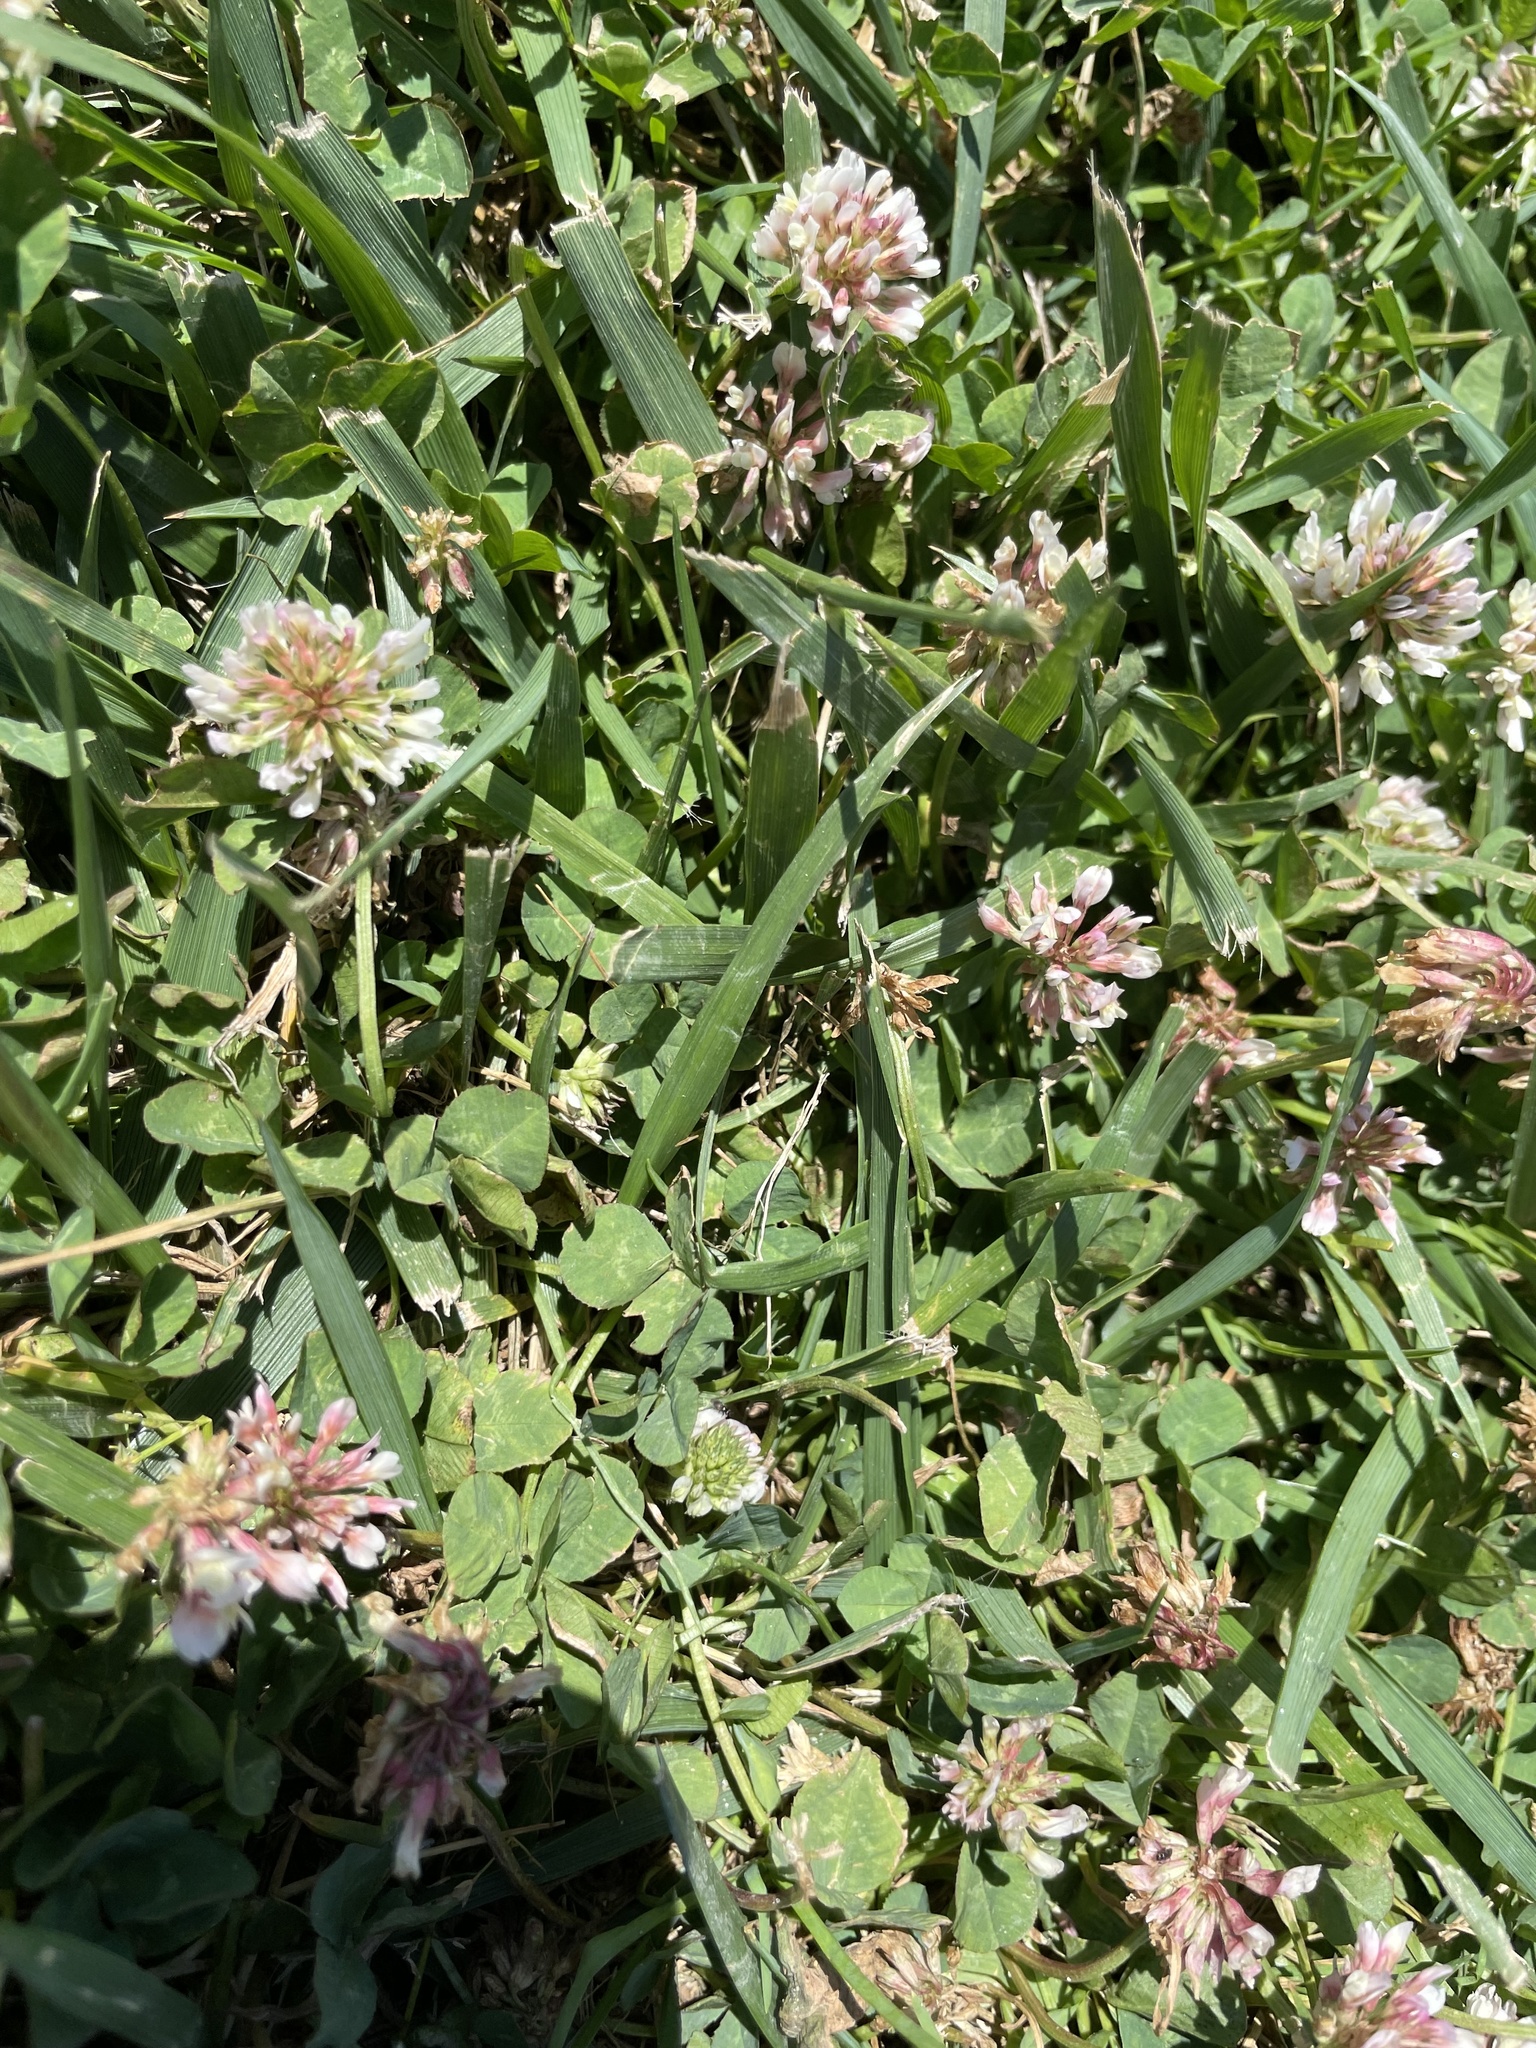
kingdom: Plantae
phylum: Tracheophyta
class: Magnoliopsida
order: Fabales
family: Fabaceae
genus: Trifolium
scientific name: Trifolium repens
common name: White clover
